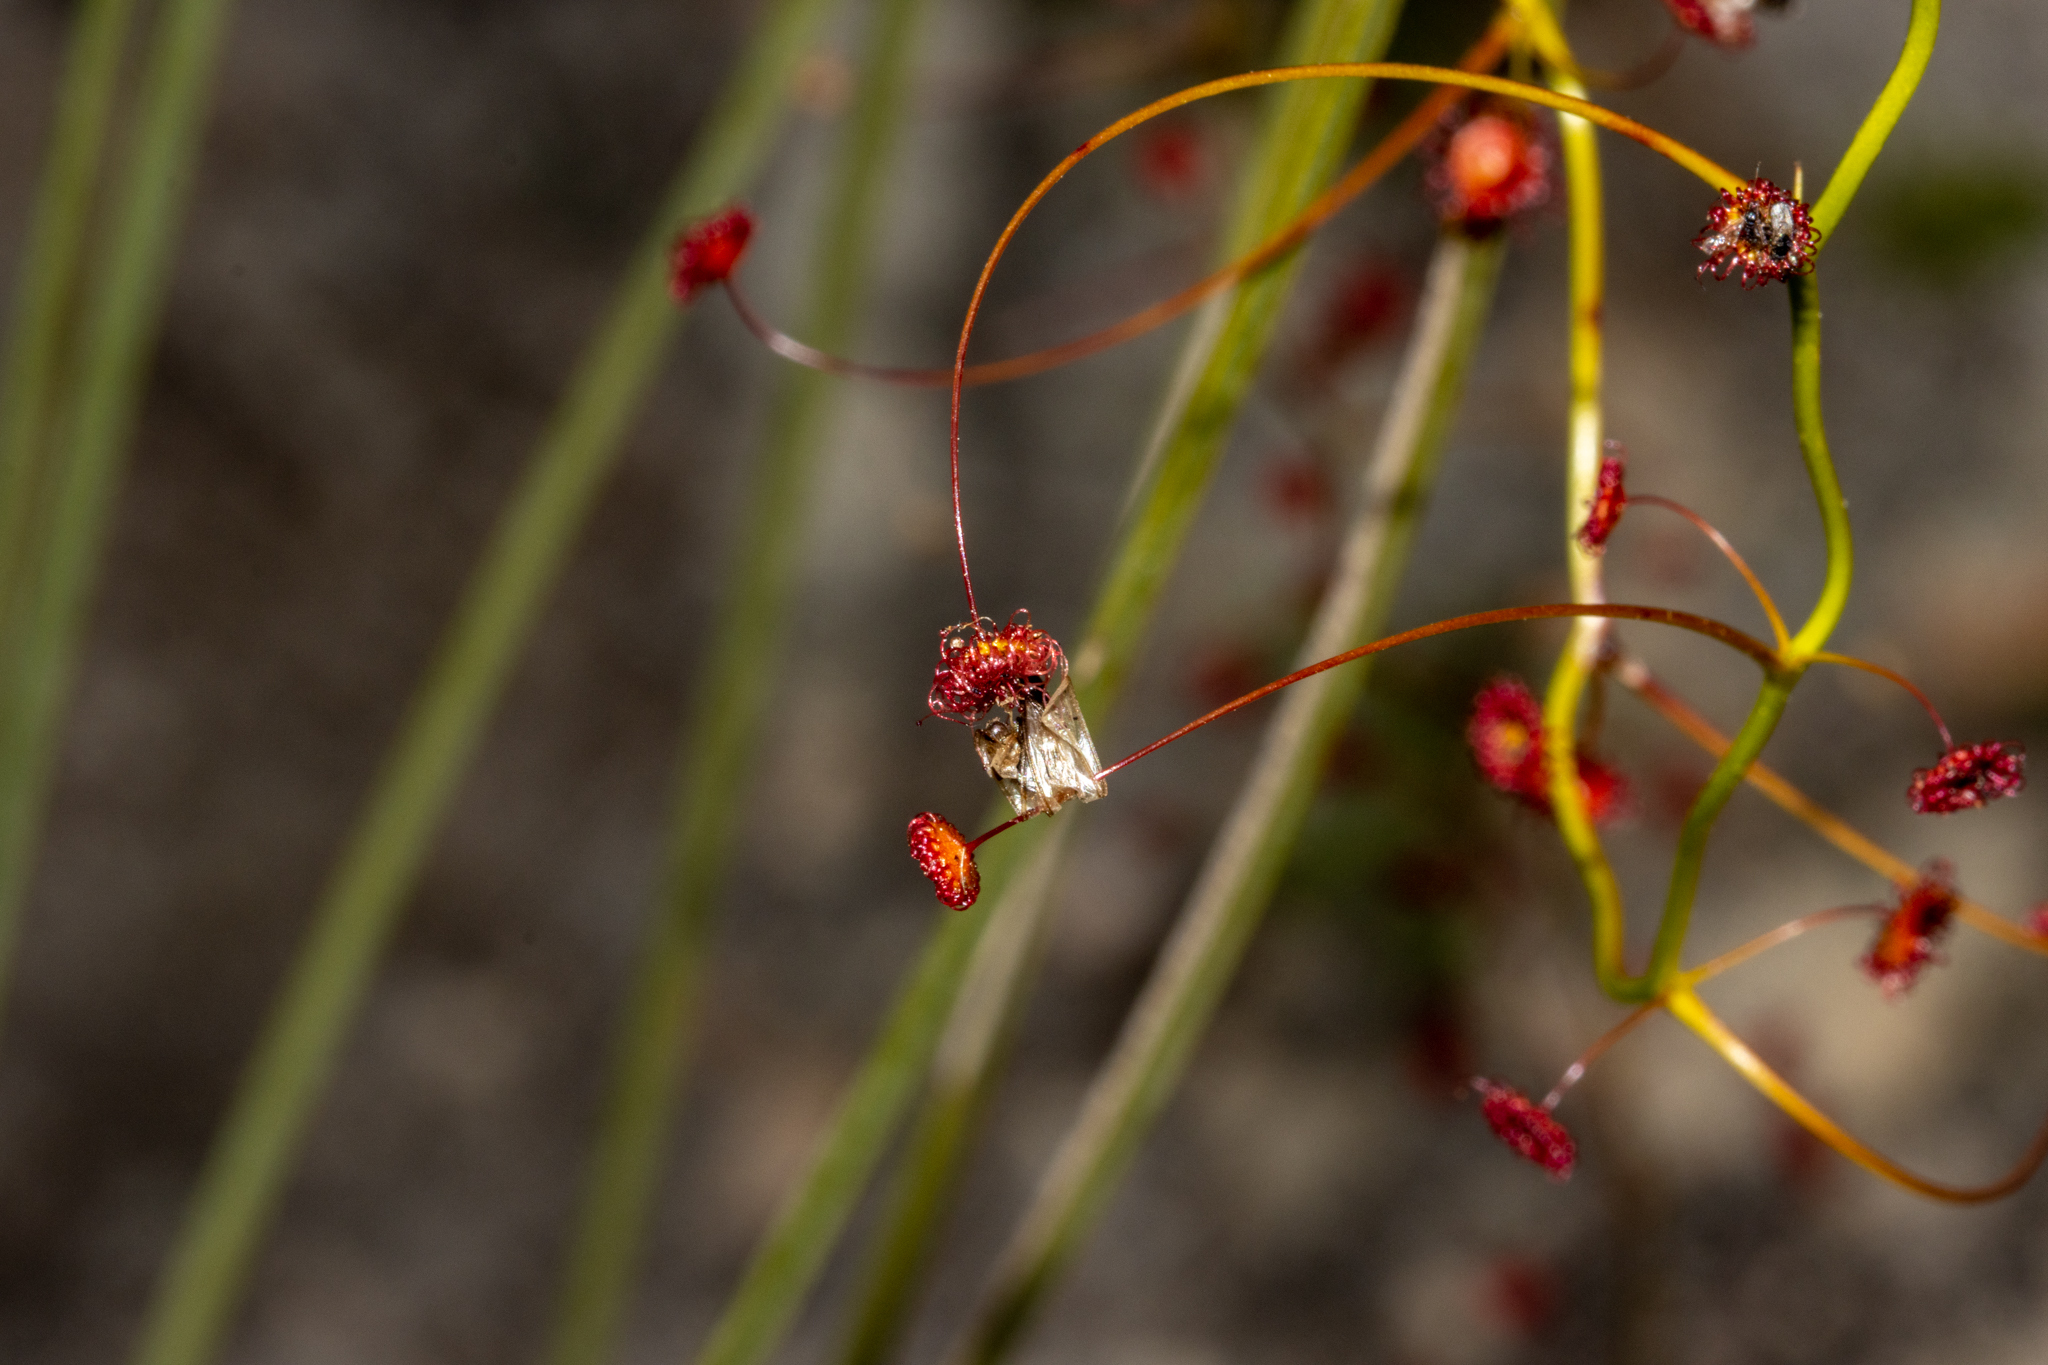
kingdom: Plantae
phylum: Tracheophyta
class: Magnoliopsida
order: Caryophyllales
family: Droseraceae
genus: Drosera
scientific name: Drosera pallida
